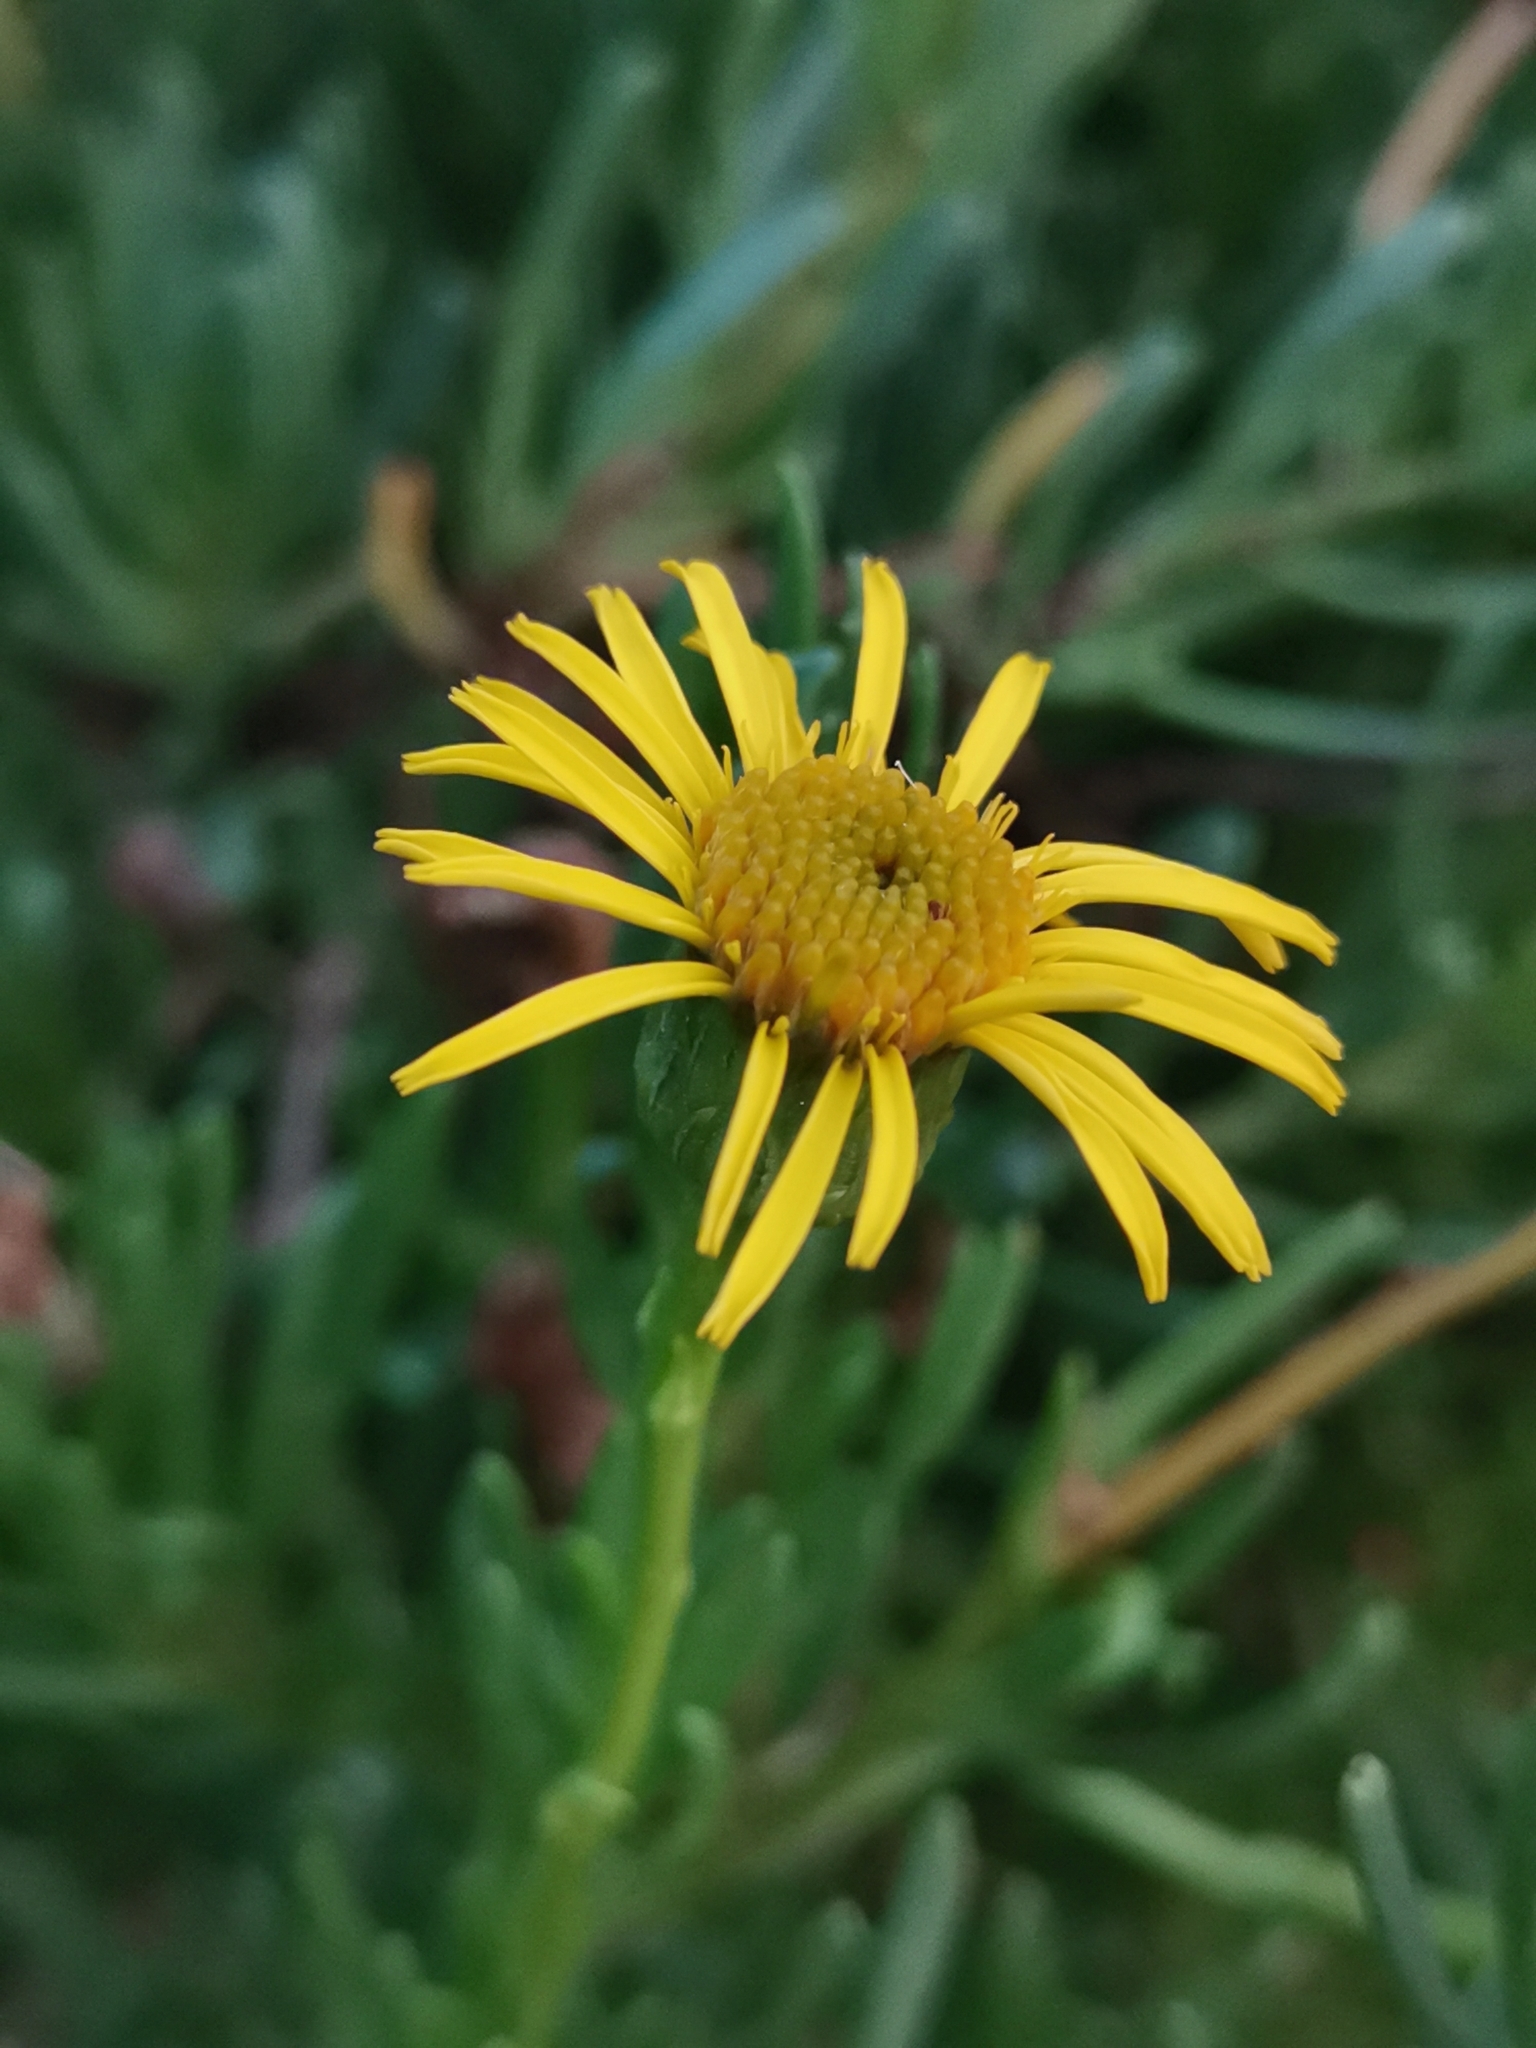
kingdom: Plantae
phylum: Tracheophyta
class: Magnoliopsida
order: Asterales
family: Asteraceae
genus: Limbarda
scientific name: Limbarda crithmoides
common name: Golden samphire
